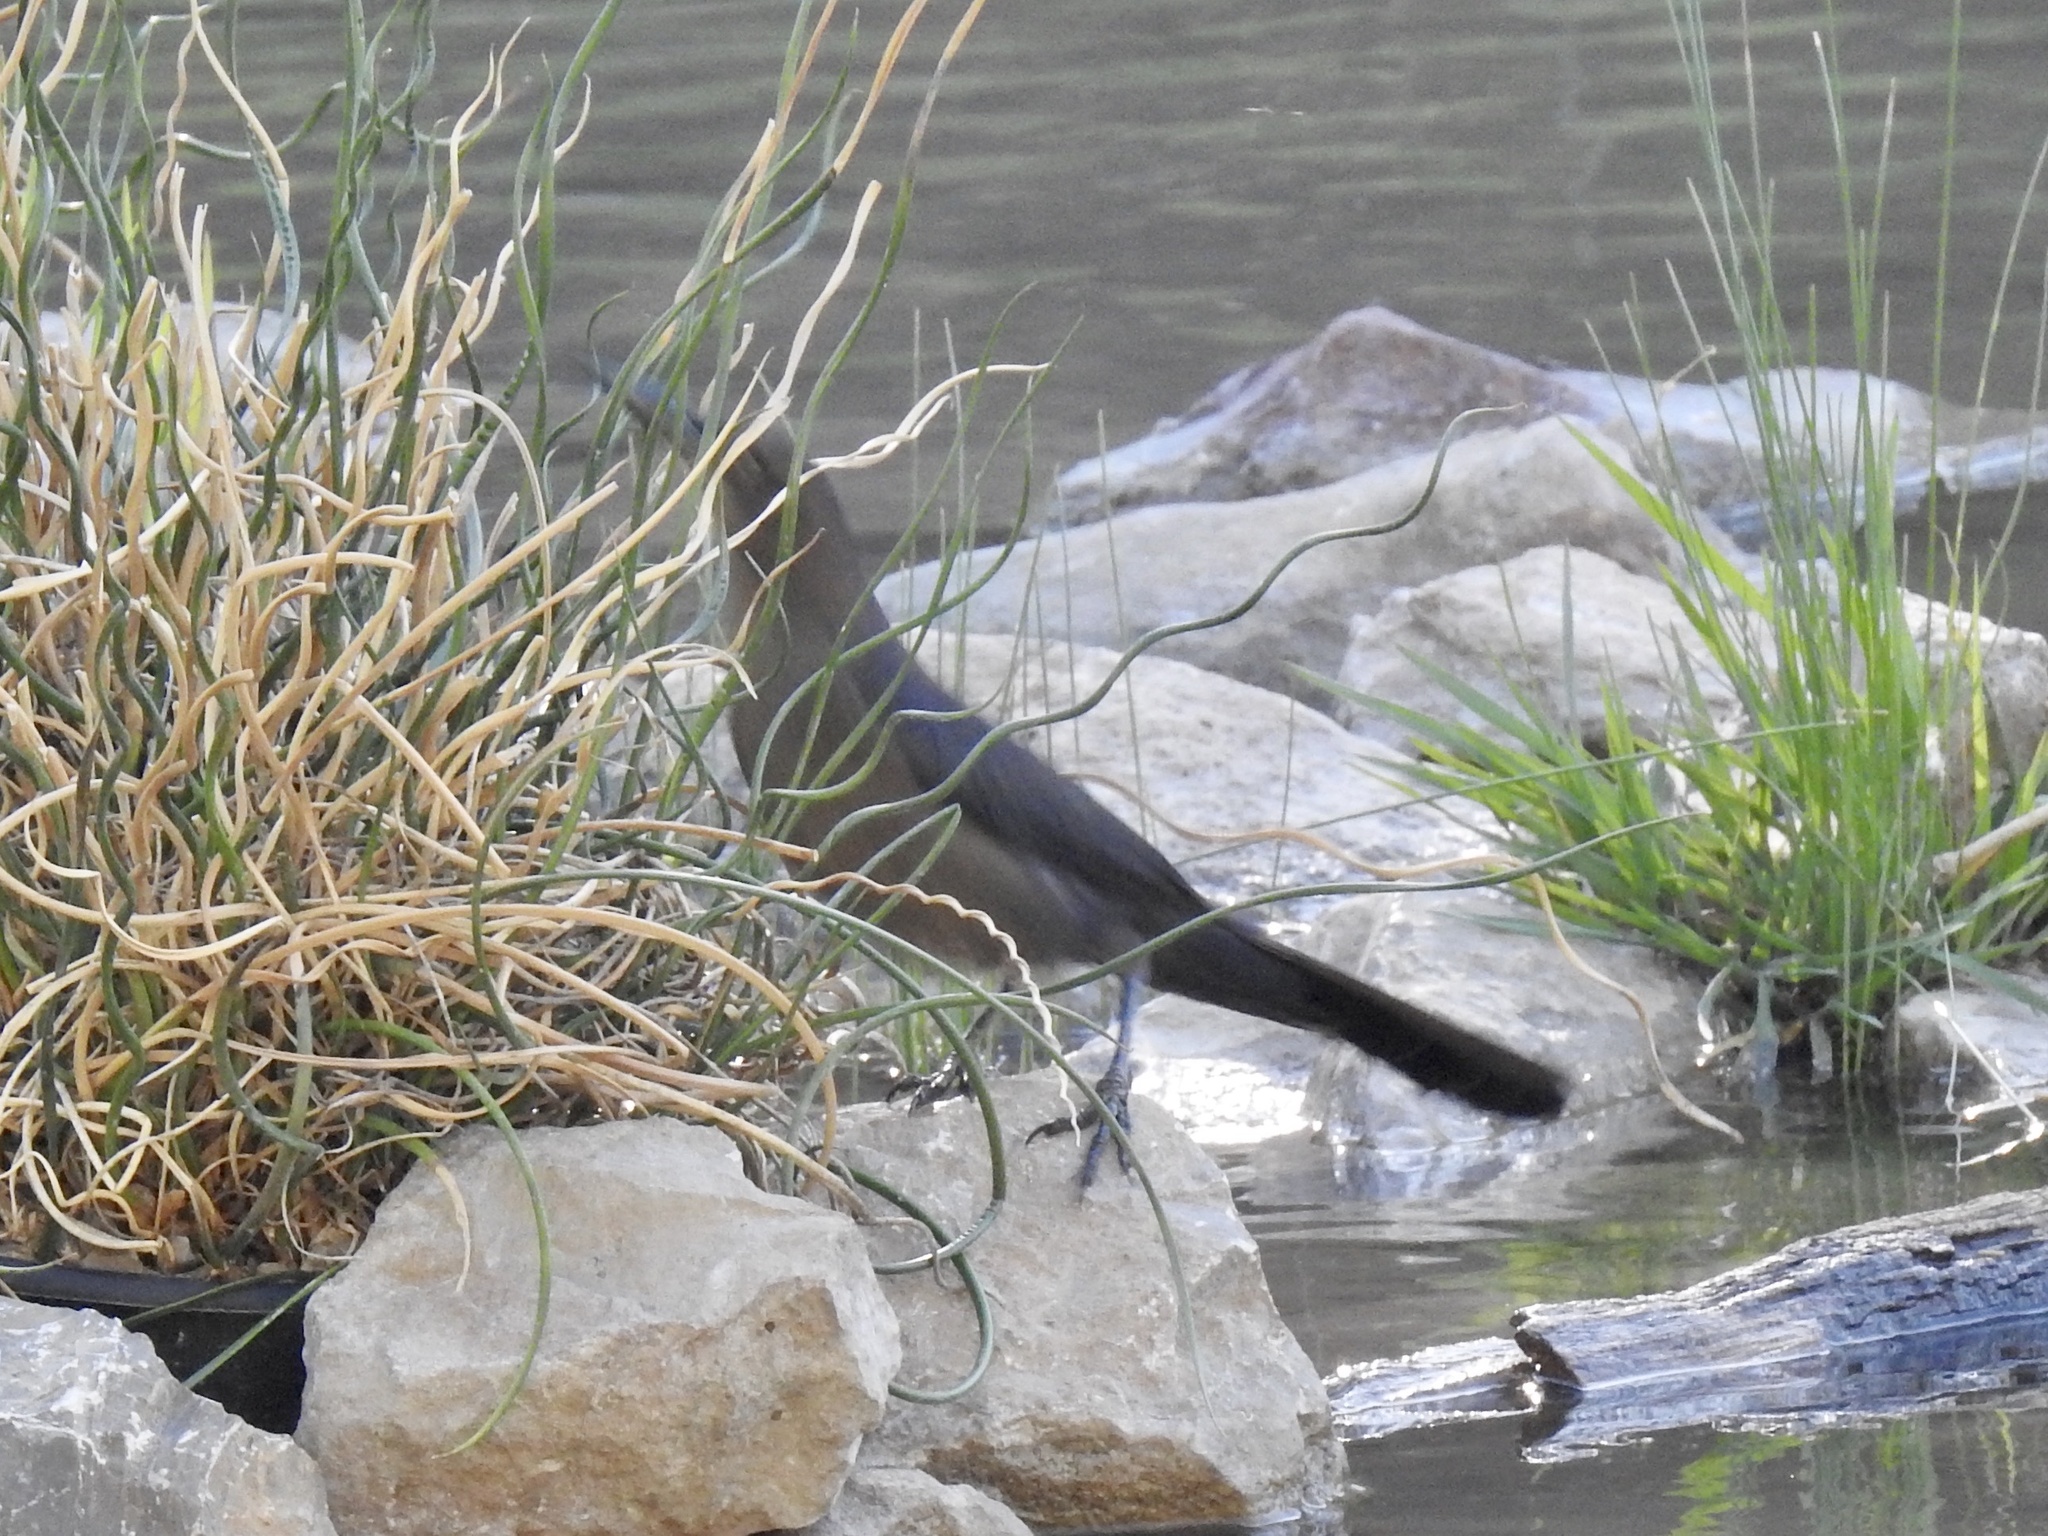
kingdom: Animalia
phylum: Chordata
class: Aves
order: Passeriformes
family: Icteridae
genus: Quiscalus
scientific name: Quiscalus mexicanus
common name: Great-tailed grackle
